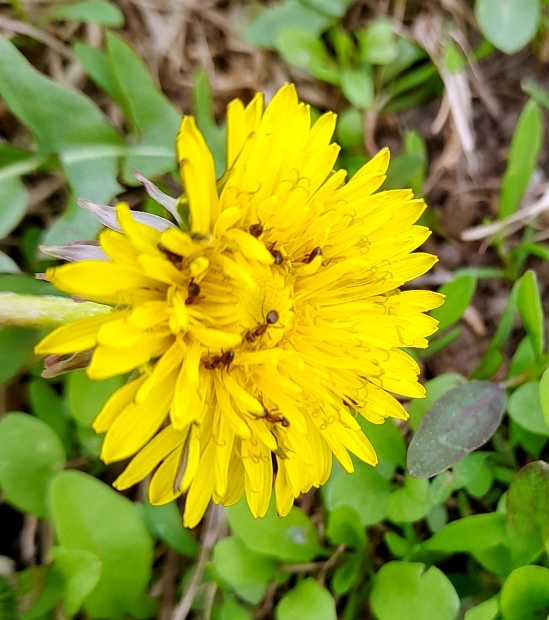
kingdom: Plantae
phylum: Tracheophyta
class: Magnoliopsida
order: Asterales
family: Asteraceae
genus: Taraxacum
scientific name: Taraxacum officinale
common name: Common dandelion
